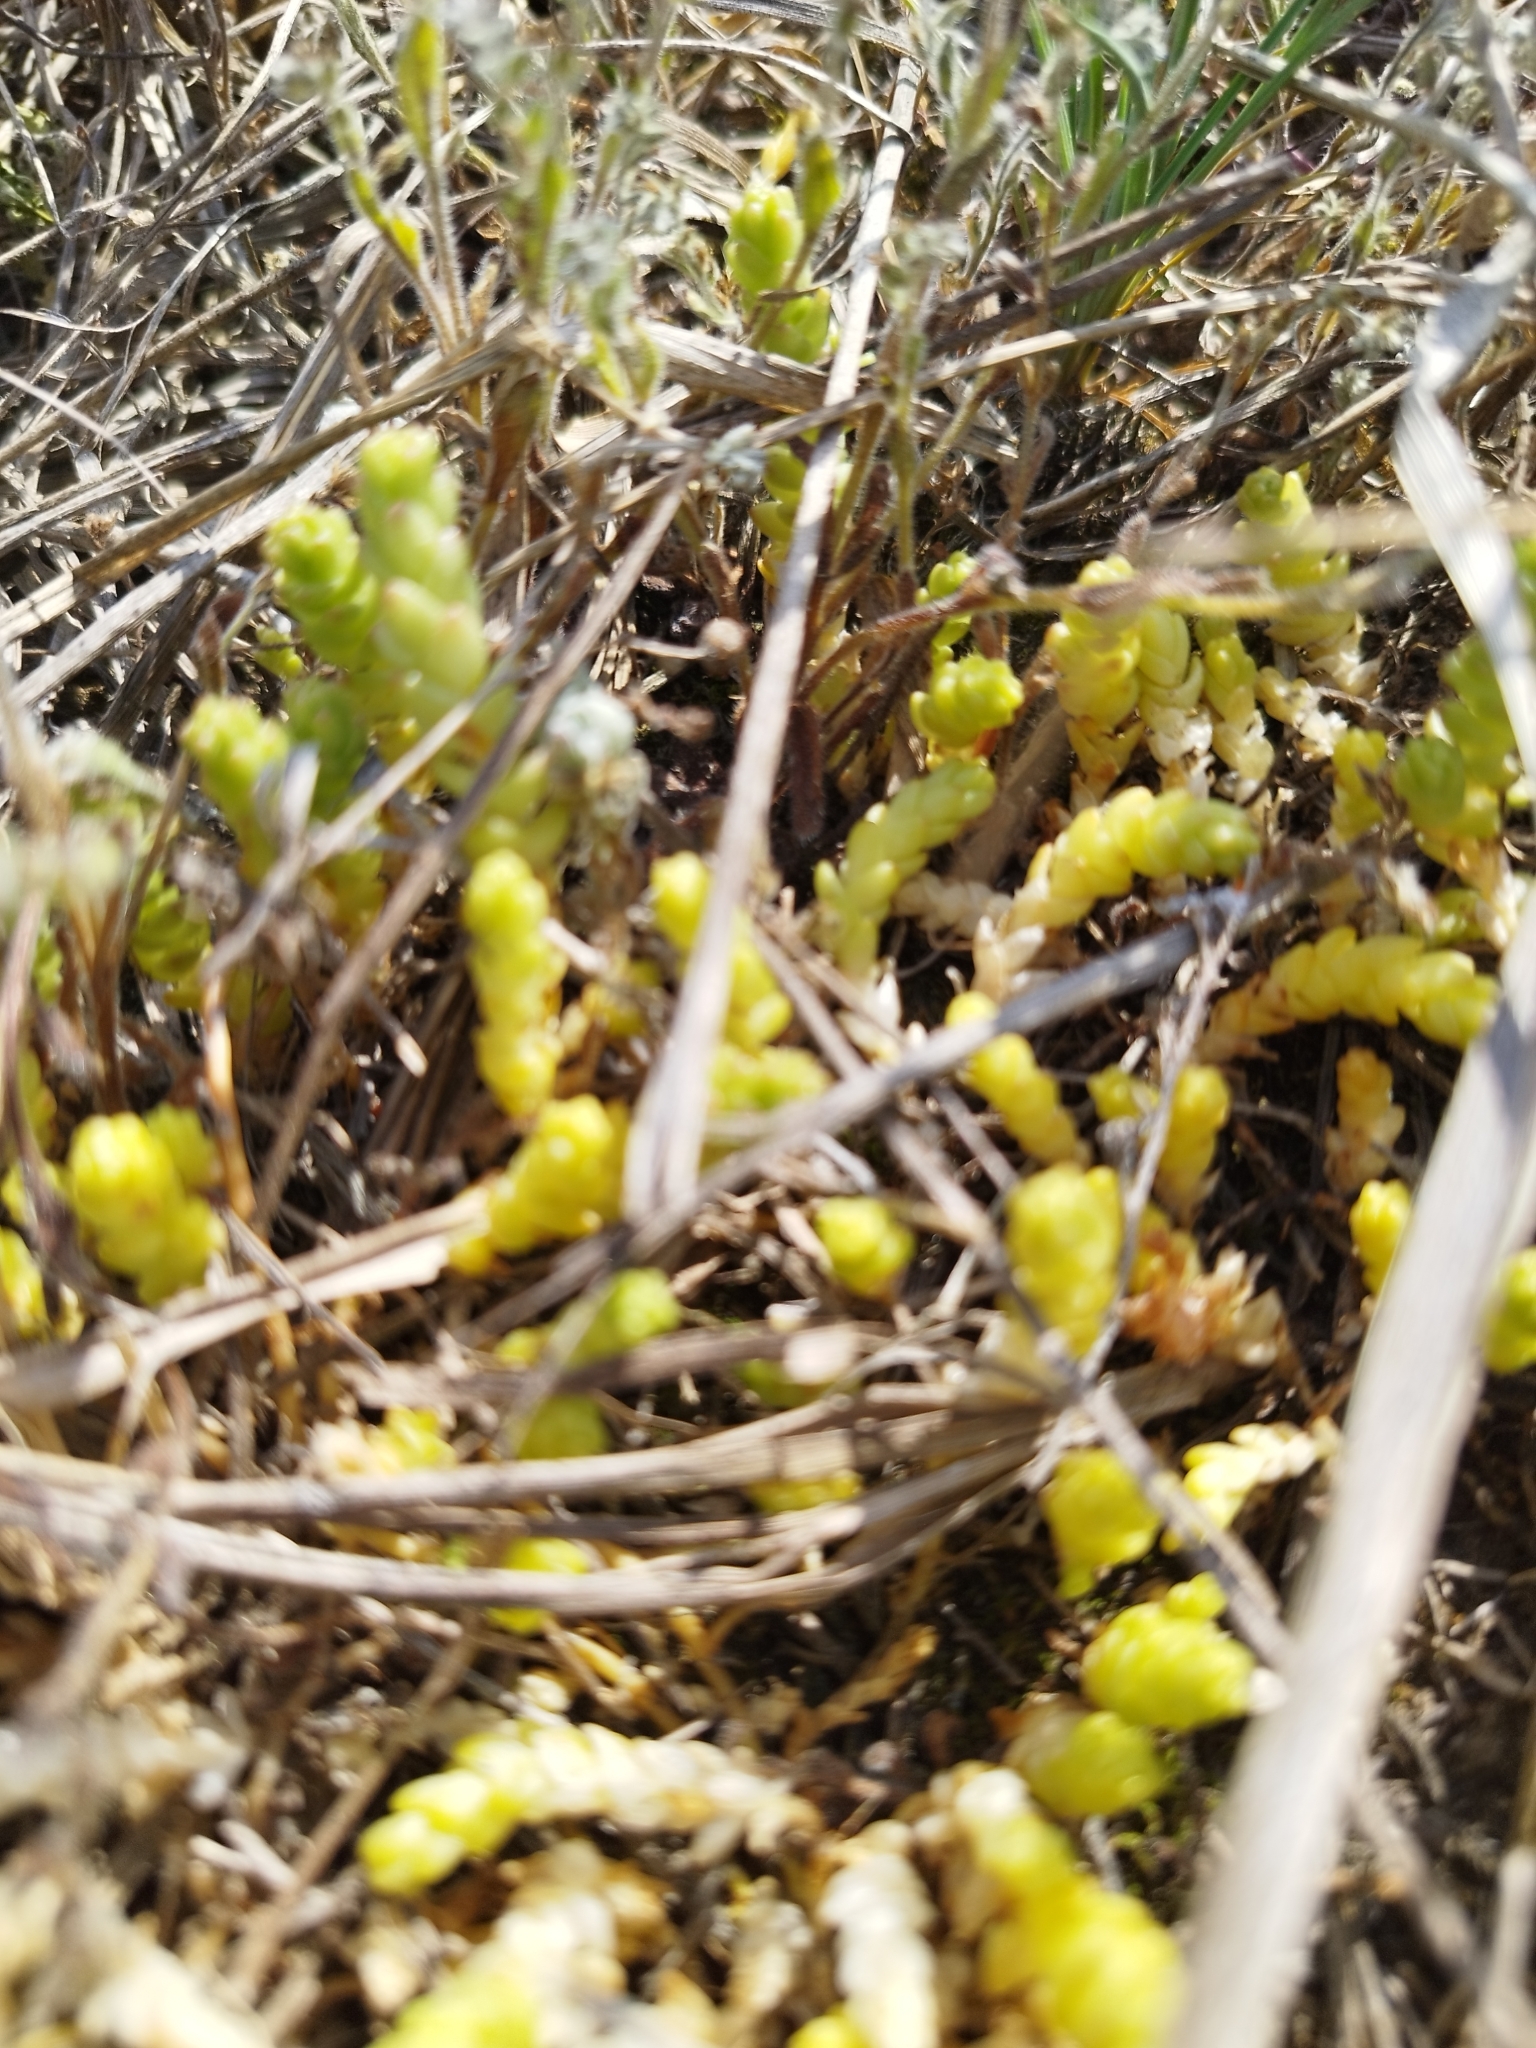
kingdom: Plantae
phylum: Tracheophyta
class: Magnoliopsida
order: Saxifragales
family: Crassulaceae
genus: Sedum
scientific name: Sedum acre
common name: Biting stonecrop
